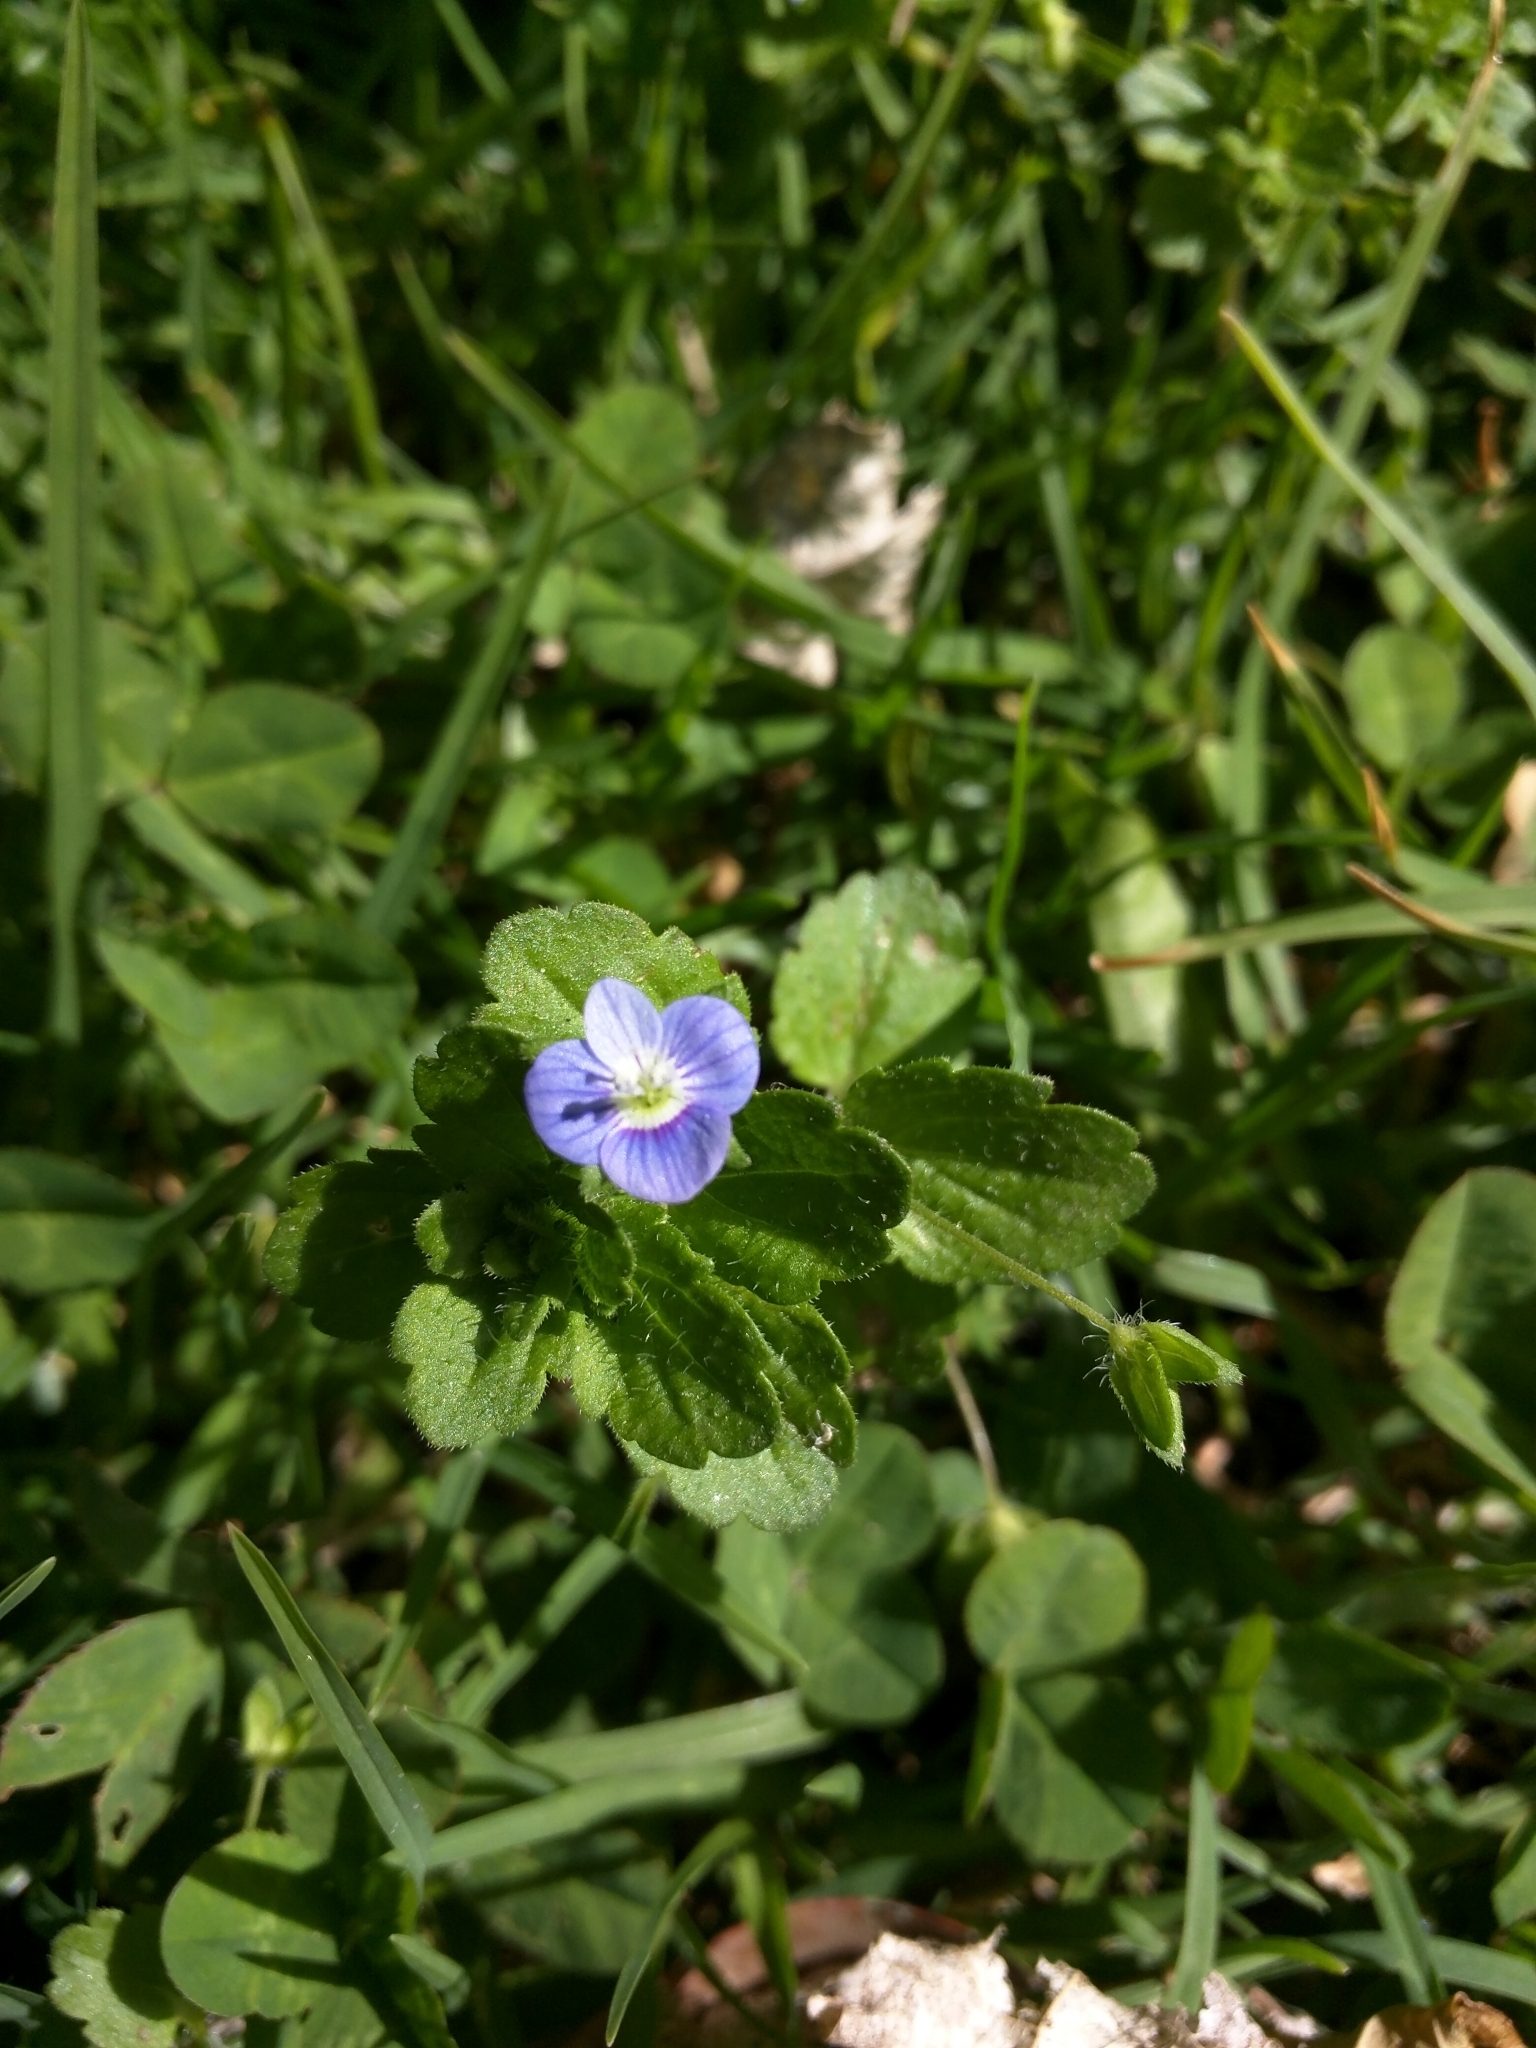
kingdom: Plantae
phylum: Tracheophyta
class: Magnoliopsida
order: Lamiales
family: Plantaginaceae
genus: Veronica
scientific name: Veronica persica
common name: Common field-speedwell
